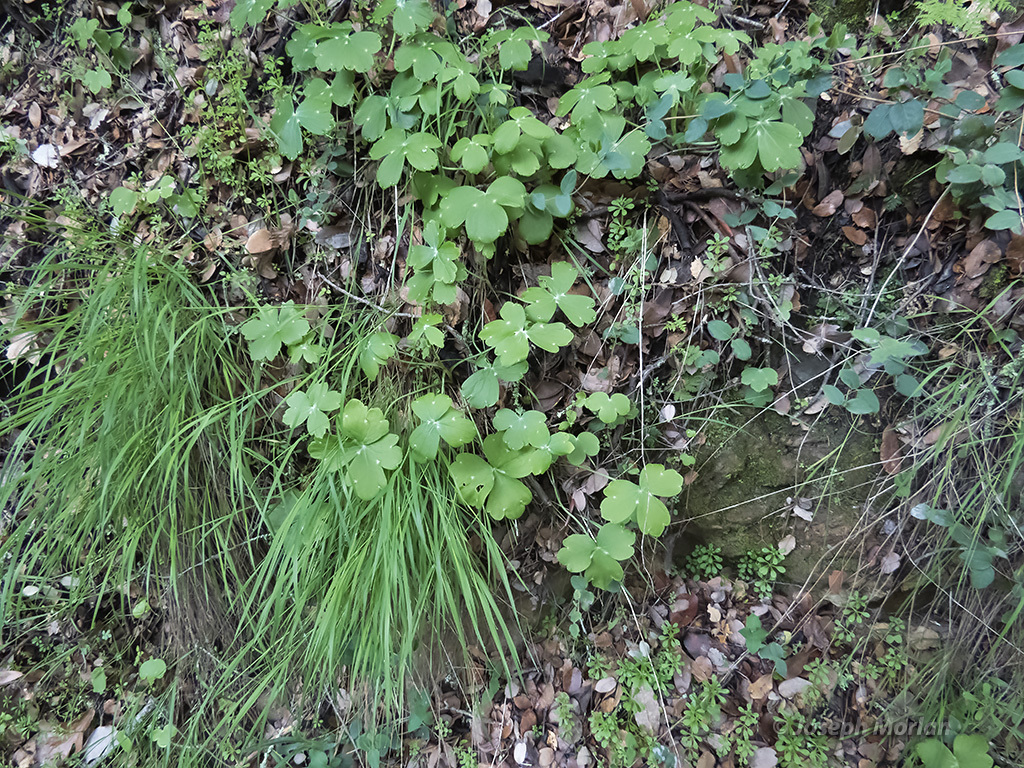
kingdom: Plantae
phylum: Tracheophyta
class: Magnoliopsida
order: Ranunculales
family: Ranunculaceae
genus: Delphinium
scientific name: Delphinium nudicaule
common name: Red larkspur
